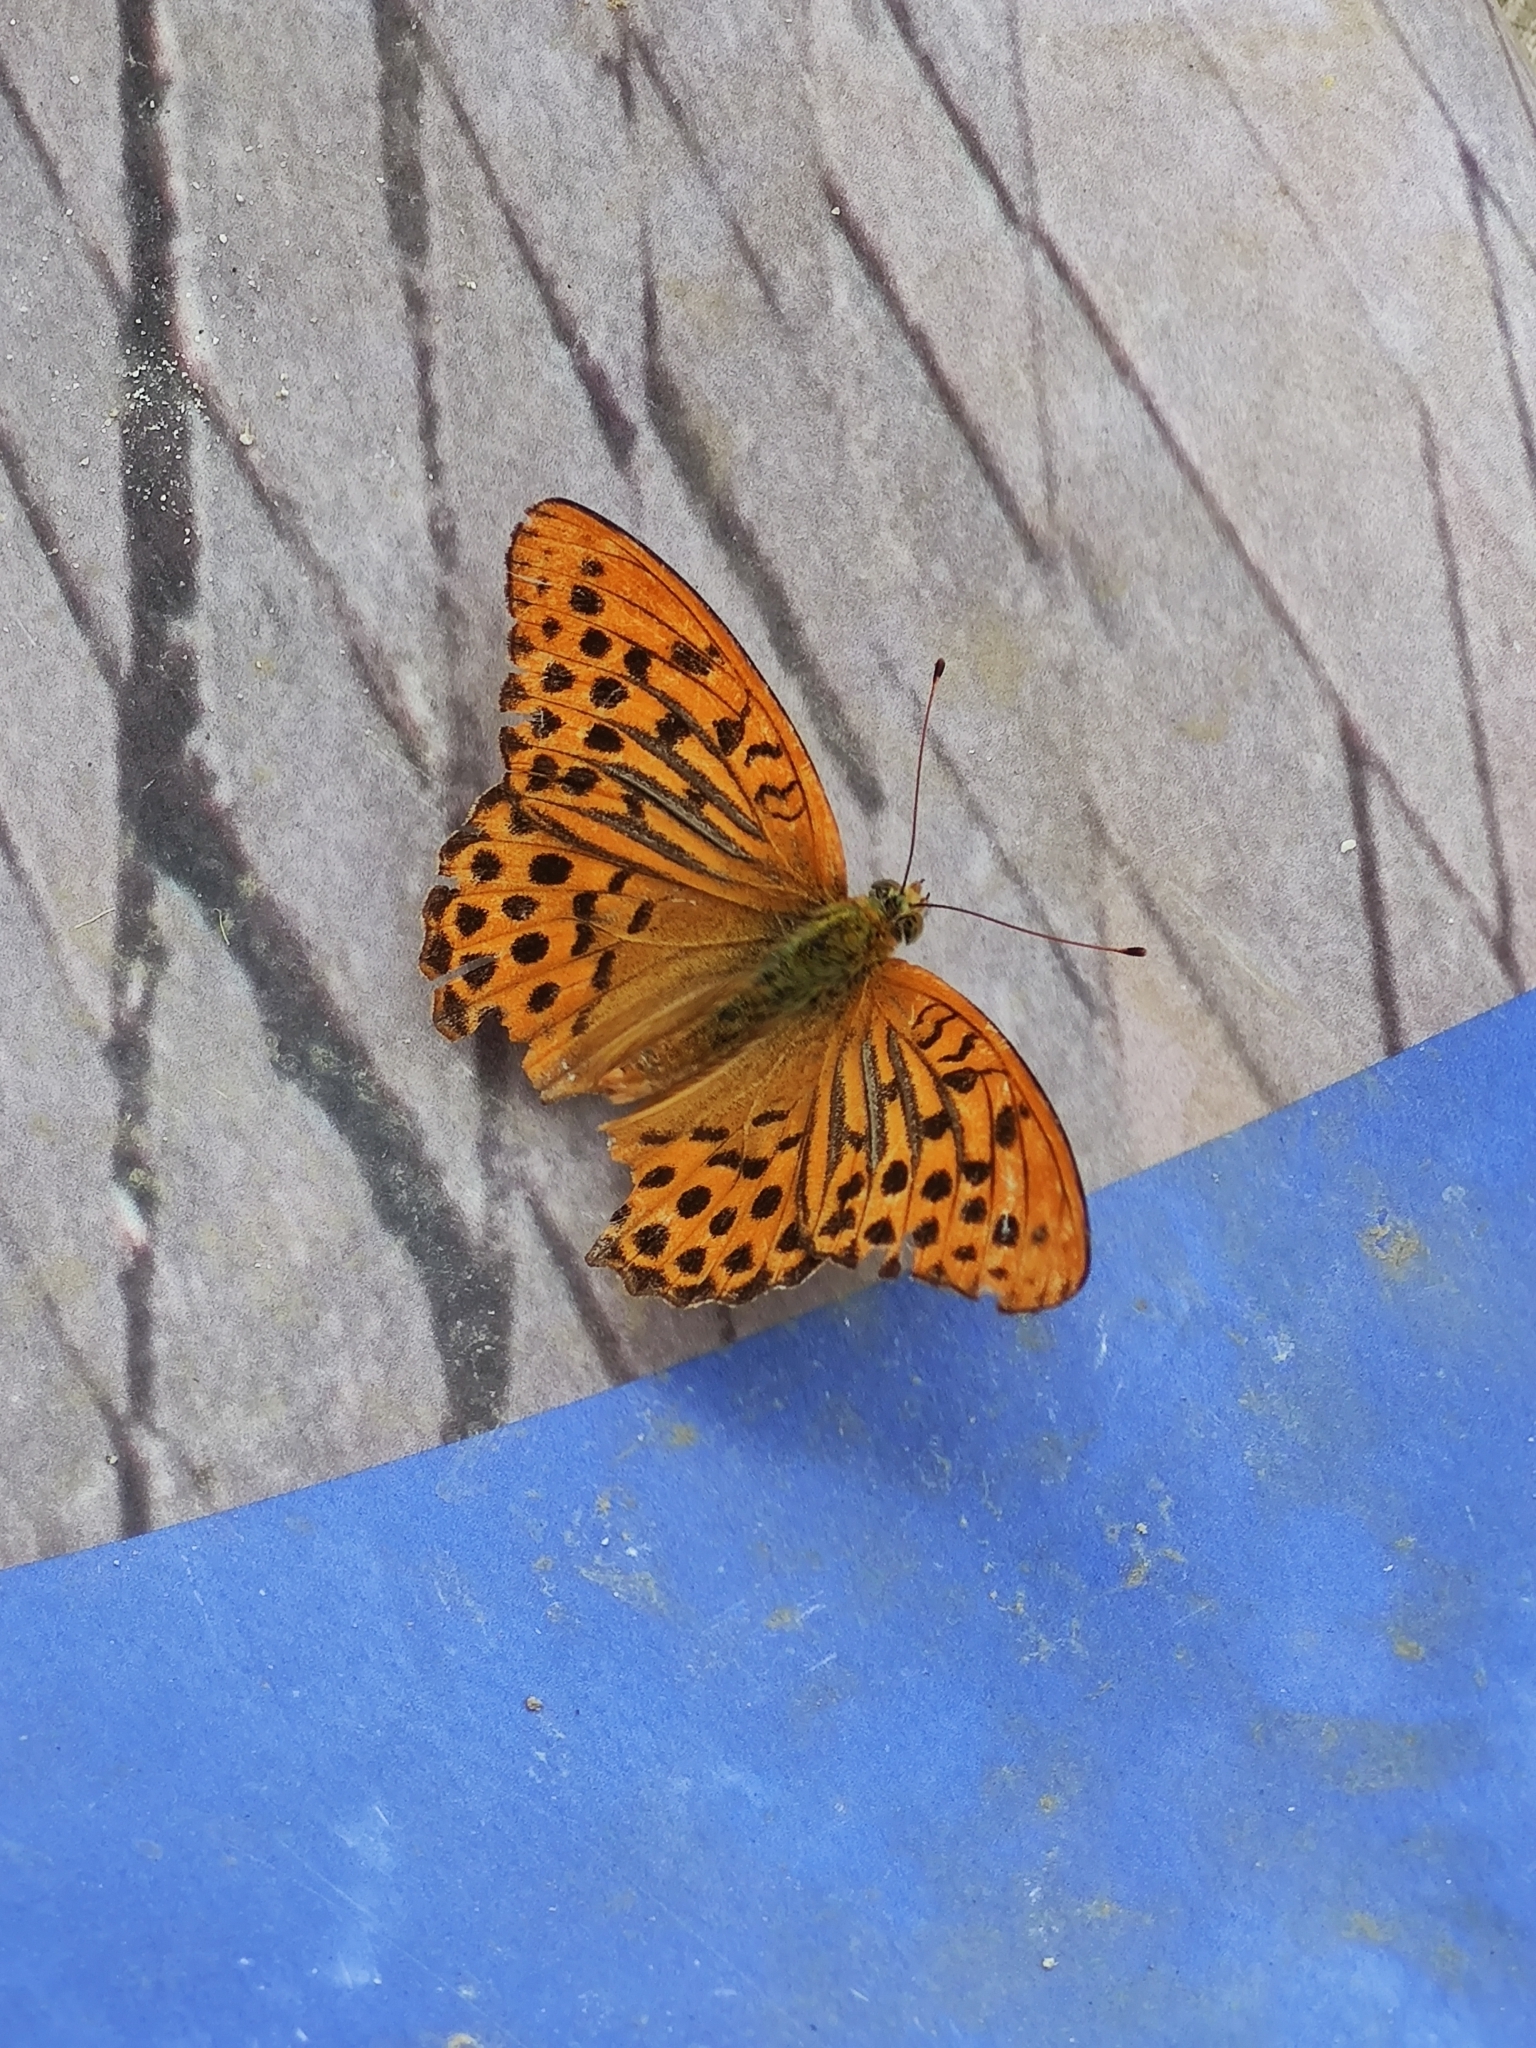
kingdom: Animalia
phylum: Arthropoda
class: Insecta
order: Lepidoptera
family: Nymphalidae
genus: Argynnis
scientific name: Argynnis paphia
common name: Silver-washed fritillary
